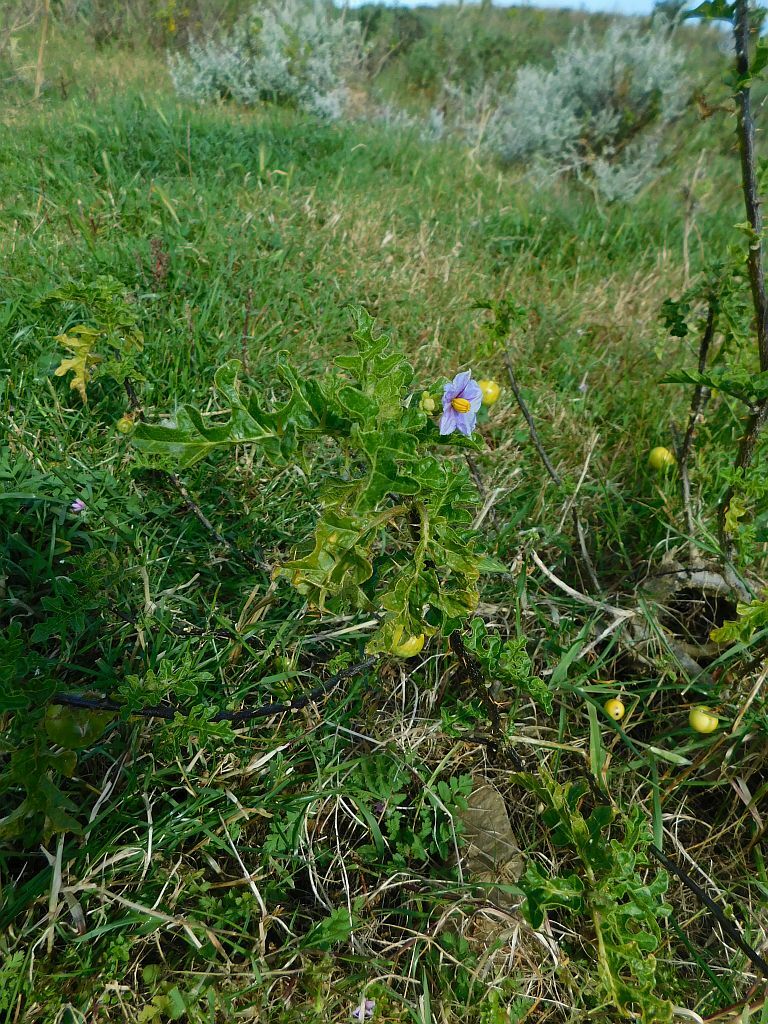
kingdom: Plantae
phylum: Tracheophyta
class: Magnoliopsida
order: Solanales
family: Solanaceae
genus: Solanum
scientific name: Solanum linnaeanum
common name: Nightshade
